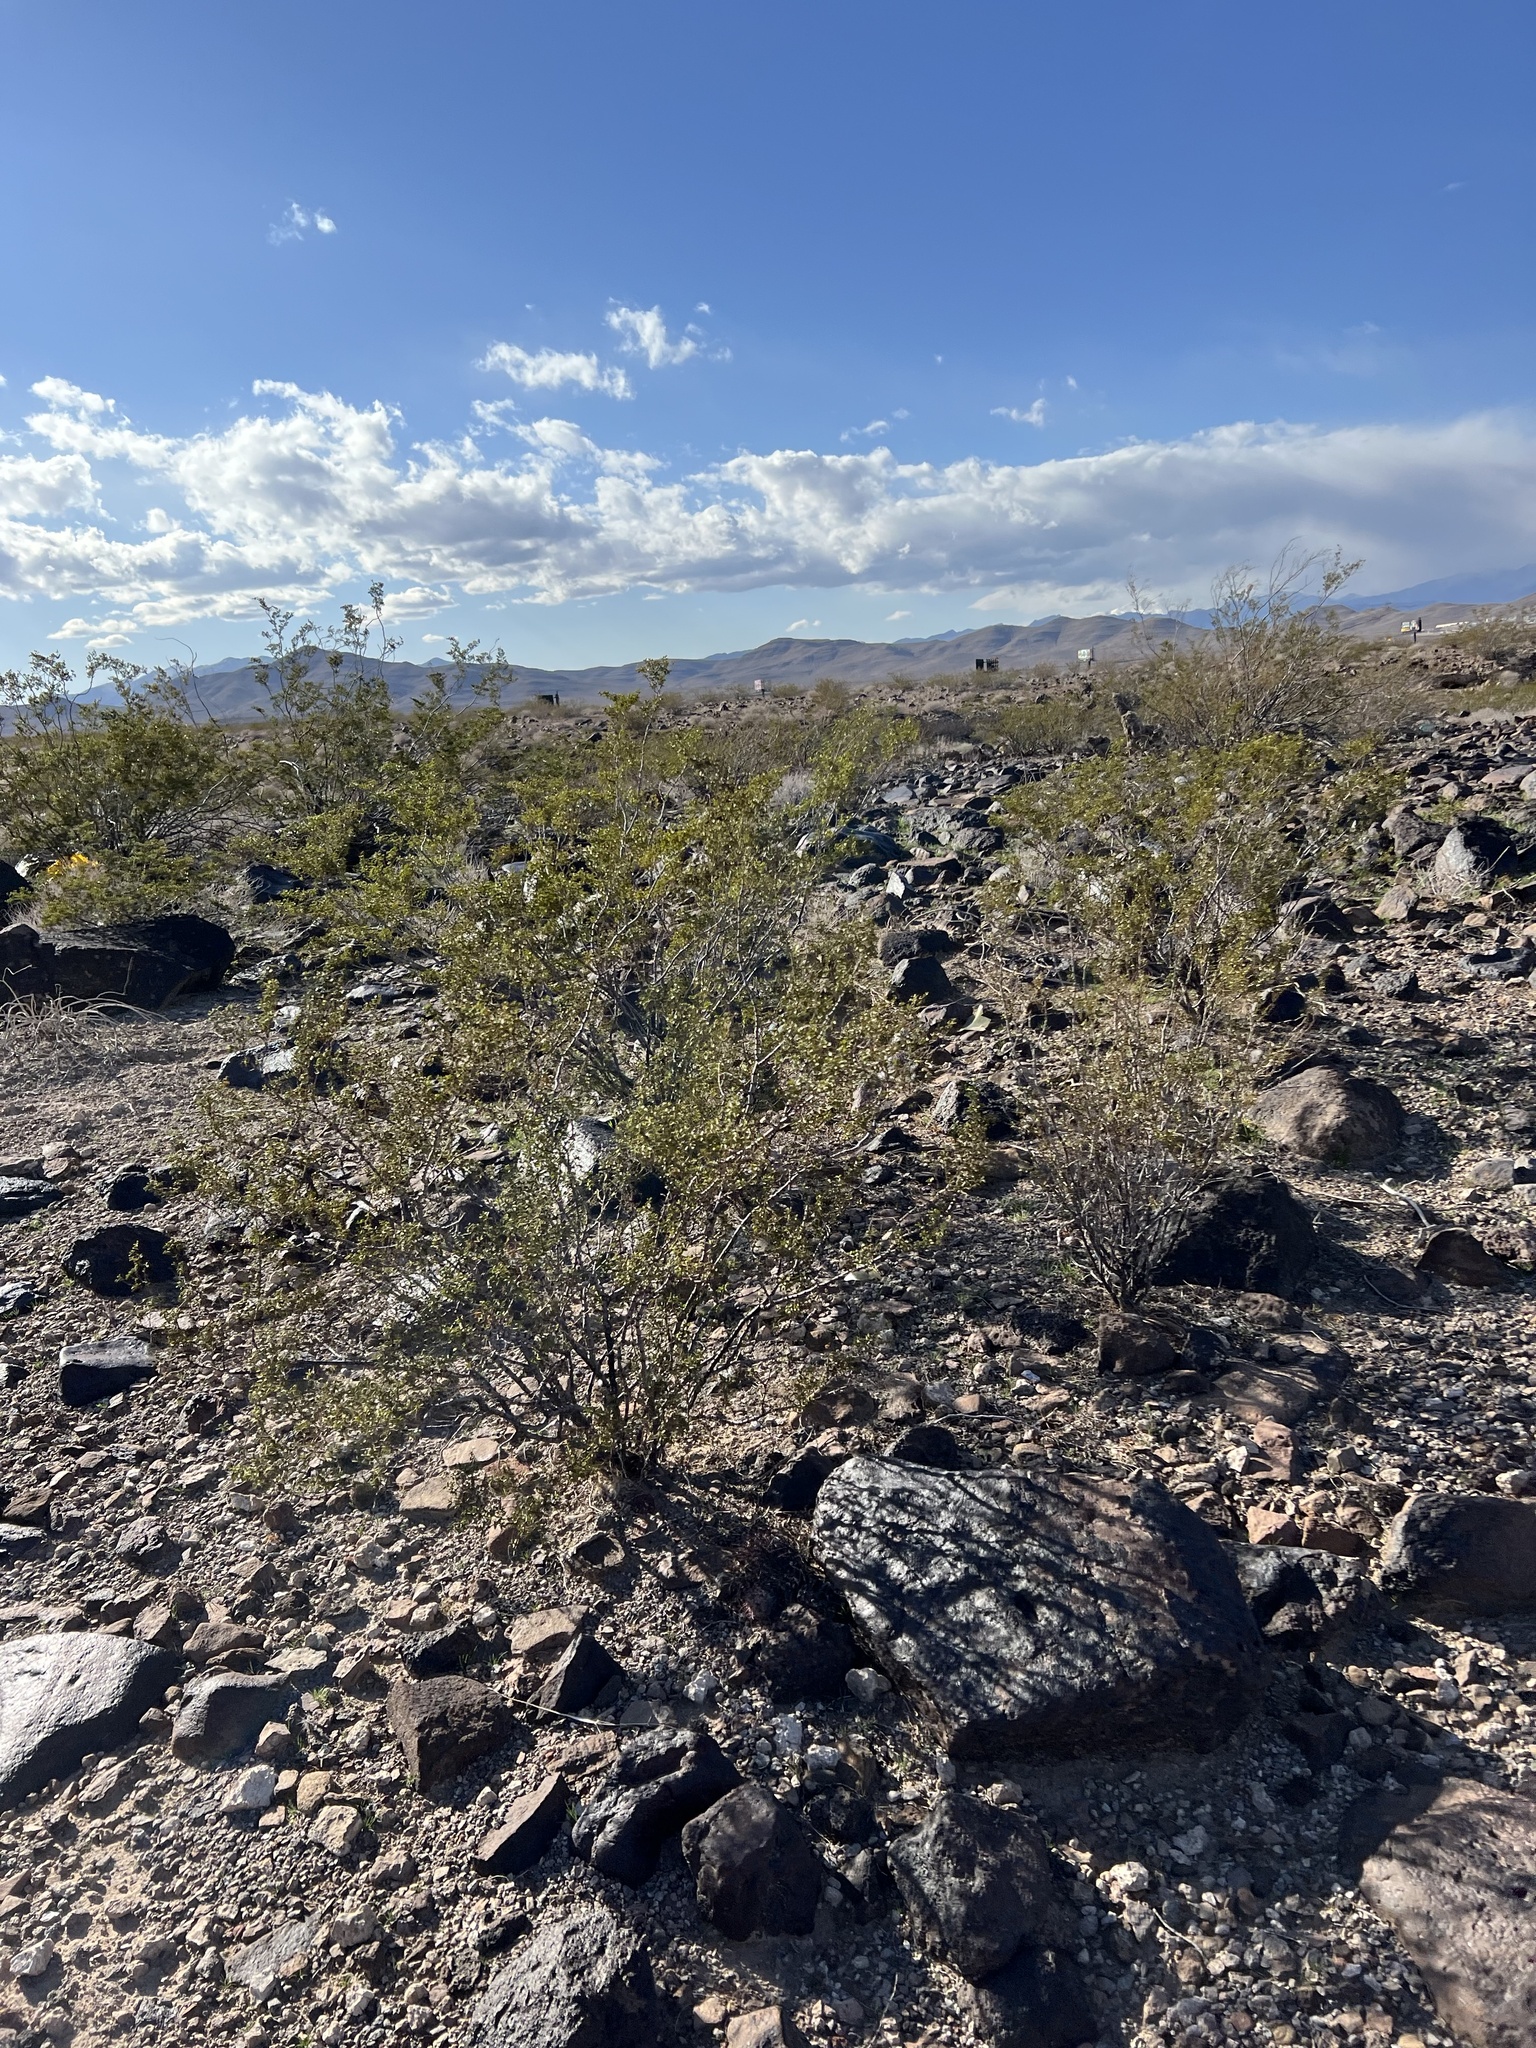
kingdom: Plantae
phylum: Tracheophyta
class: Magnoliopsida
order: Zygophyllales
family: Zygophyllaceae
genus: Larrea
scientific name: Larrea tridentata
